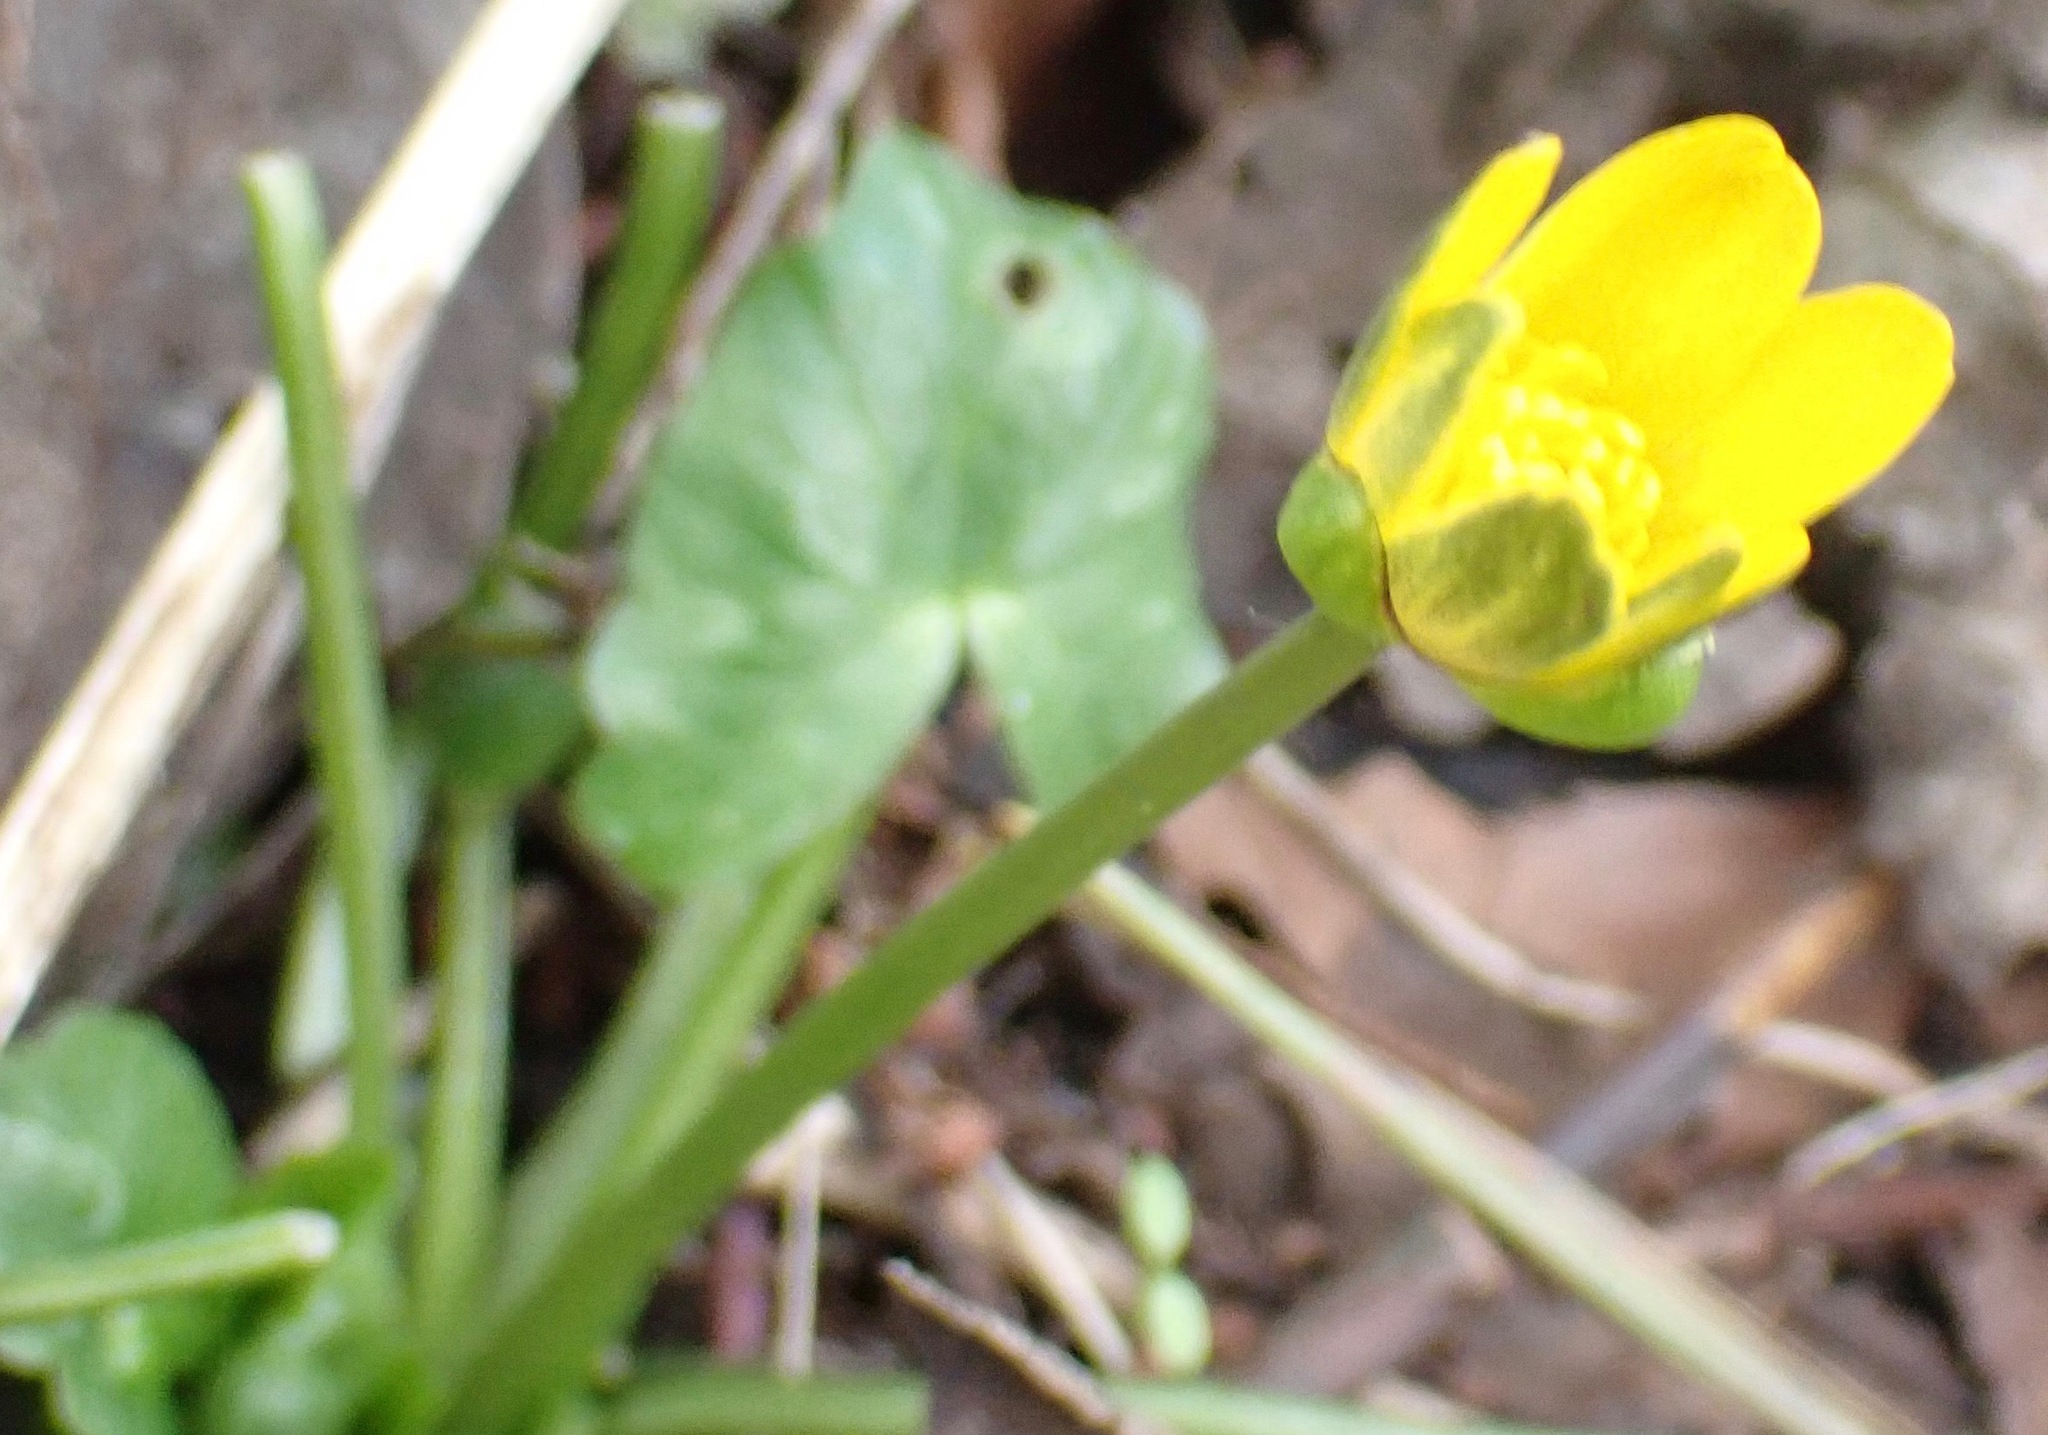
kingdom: Plantae
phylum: Tracheophyta
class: Magnoliopsida
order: Ranunculales
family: Ranunculaceae
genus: Ficaria
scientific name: Ficaria verna
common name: Lesser celandine
